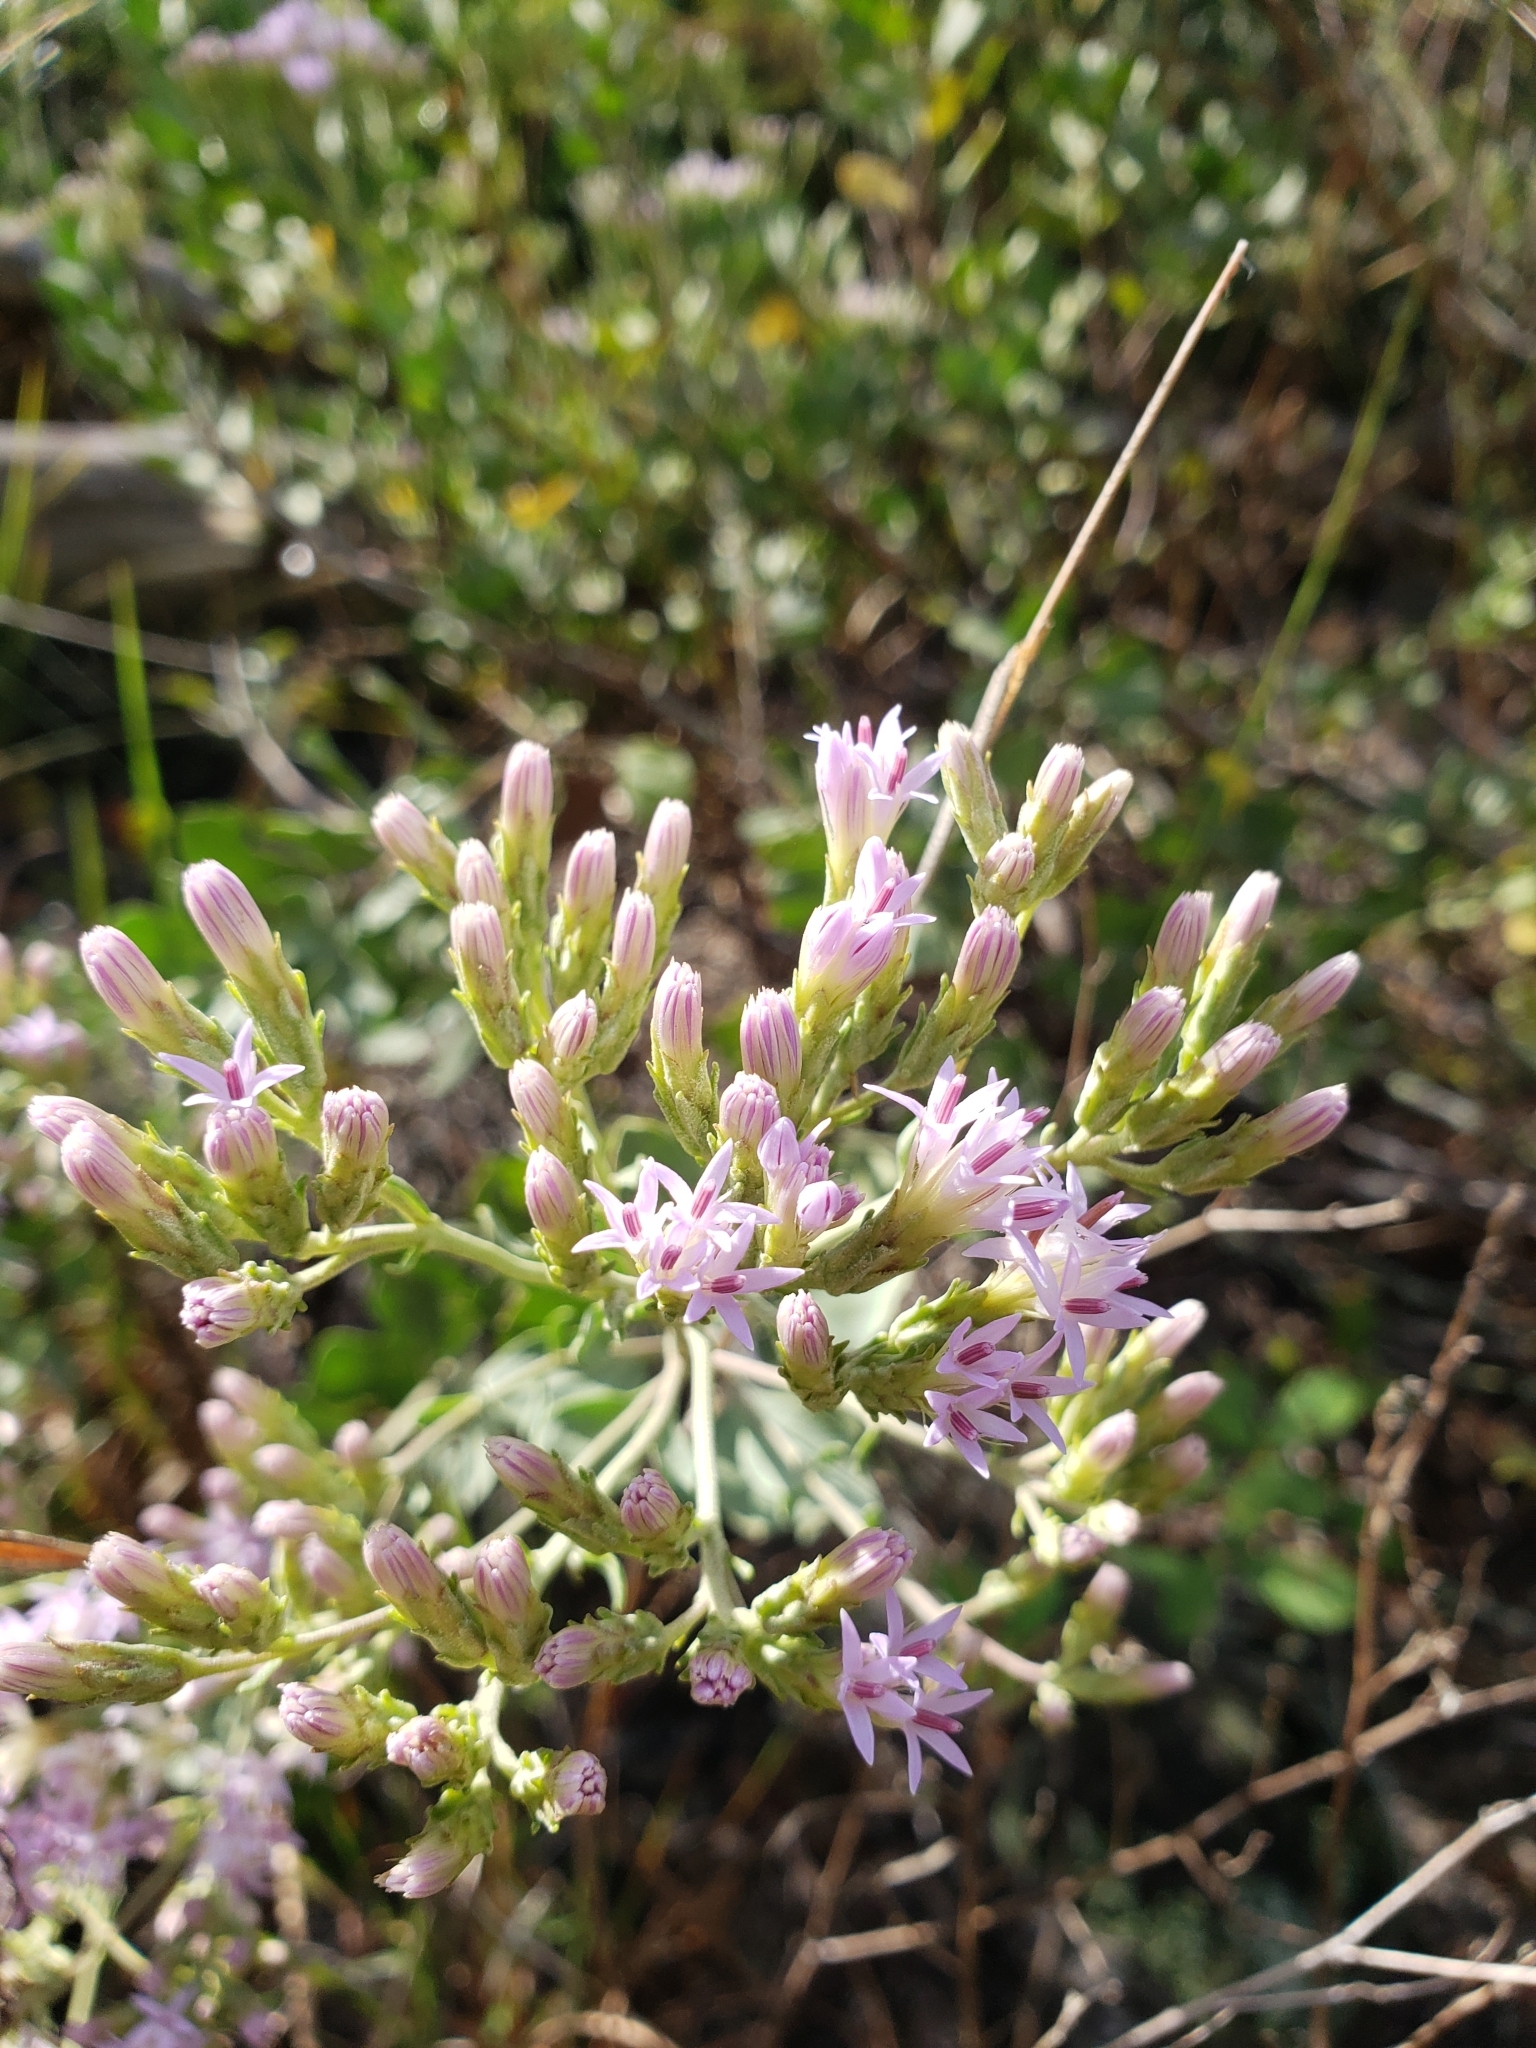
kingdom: Plantae
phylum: Tracheophyta
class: Magnoliopsida
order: Asterales
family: Asteraceae
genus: Garberia
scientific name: Garberia heterophylla
